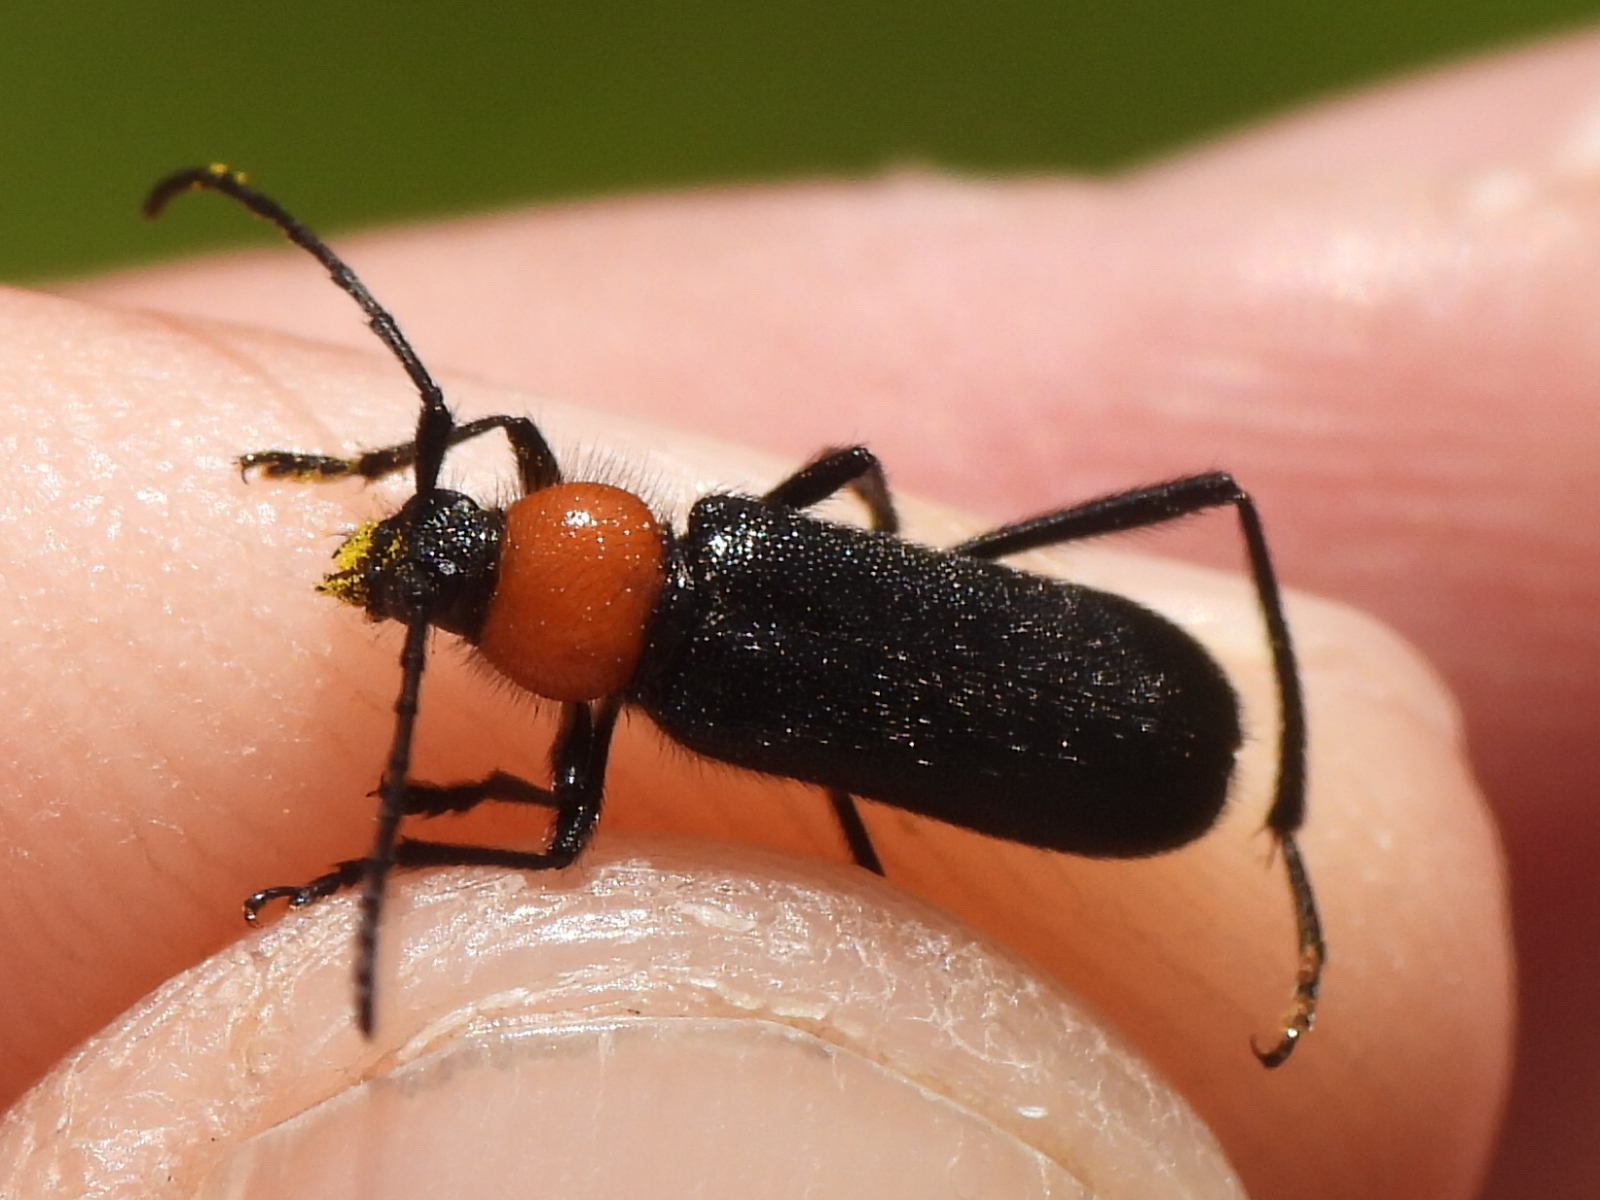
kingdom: Animalia
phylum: Arthropoda
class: Insecta
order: Coleoptera
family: Cerambycidae
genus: Batyle
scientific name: Batyle ignicollis
